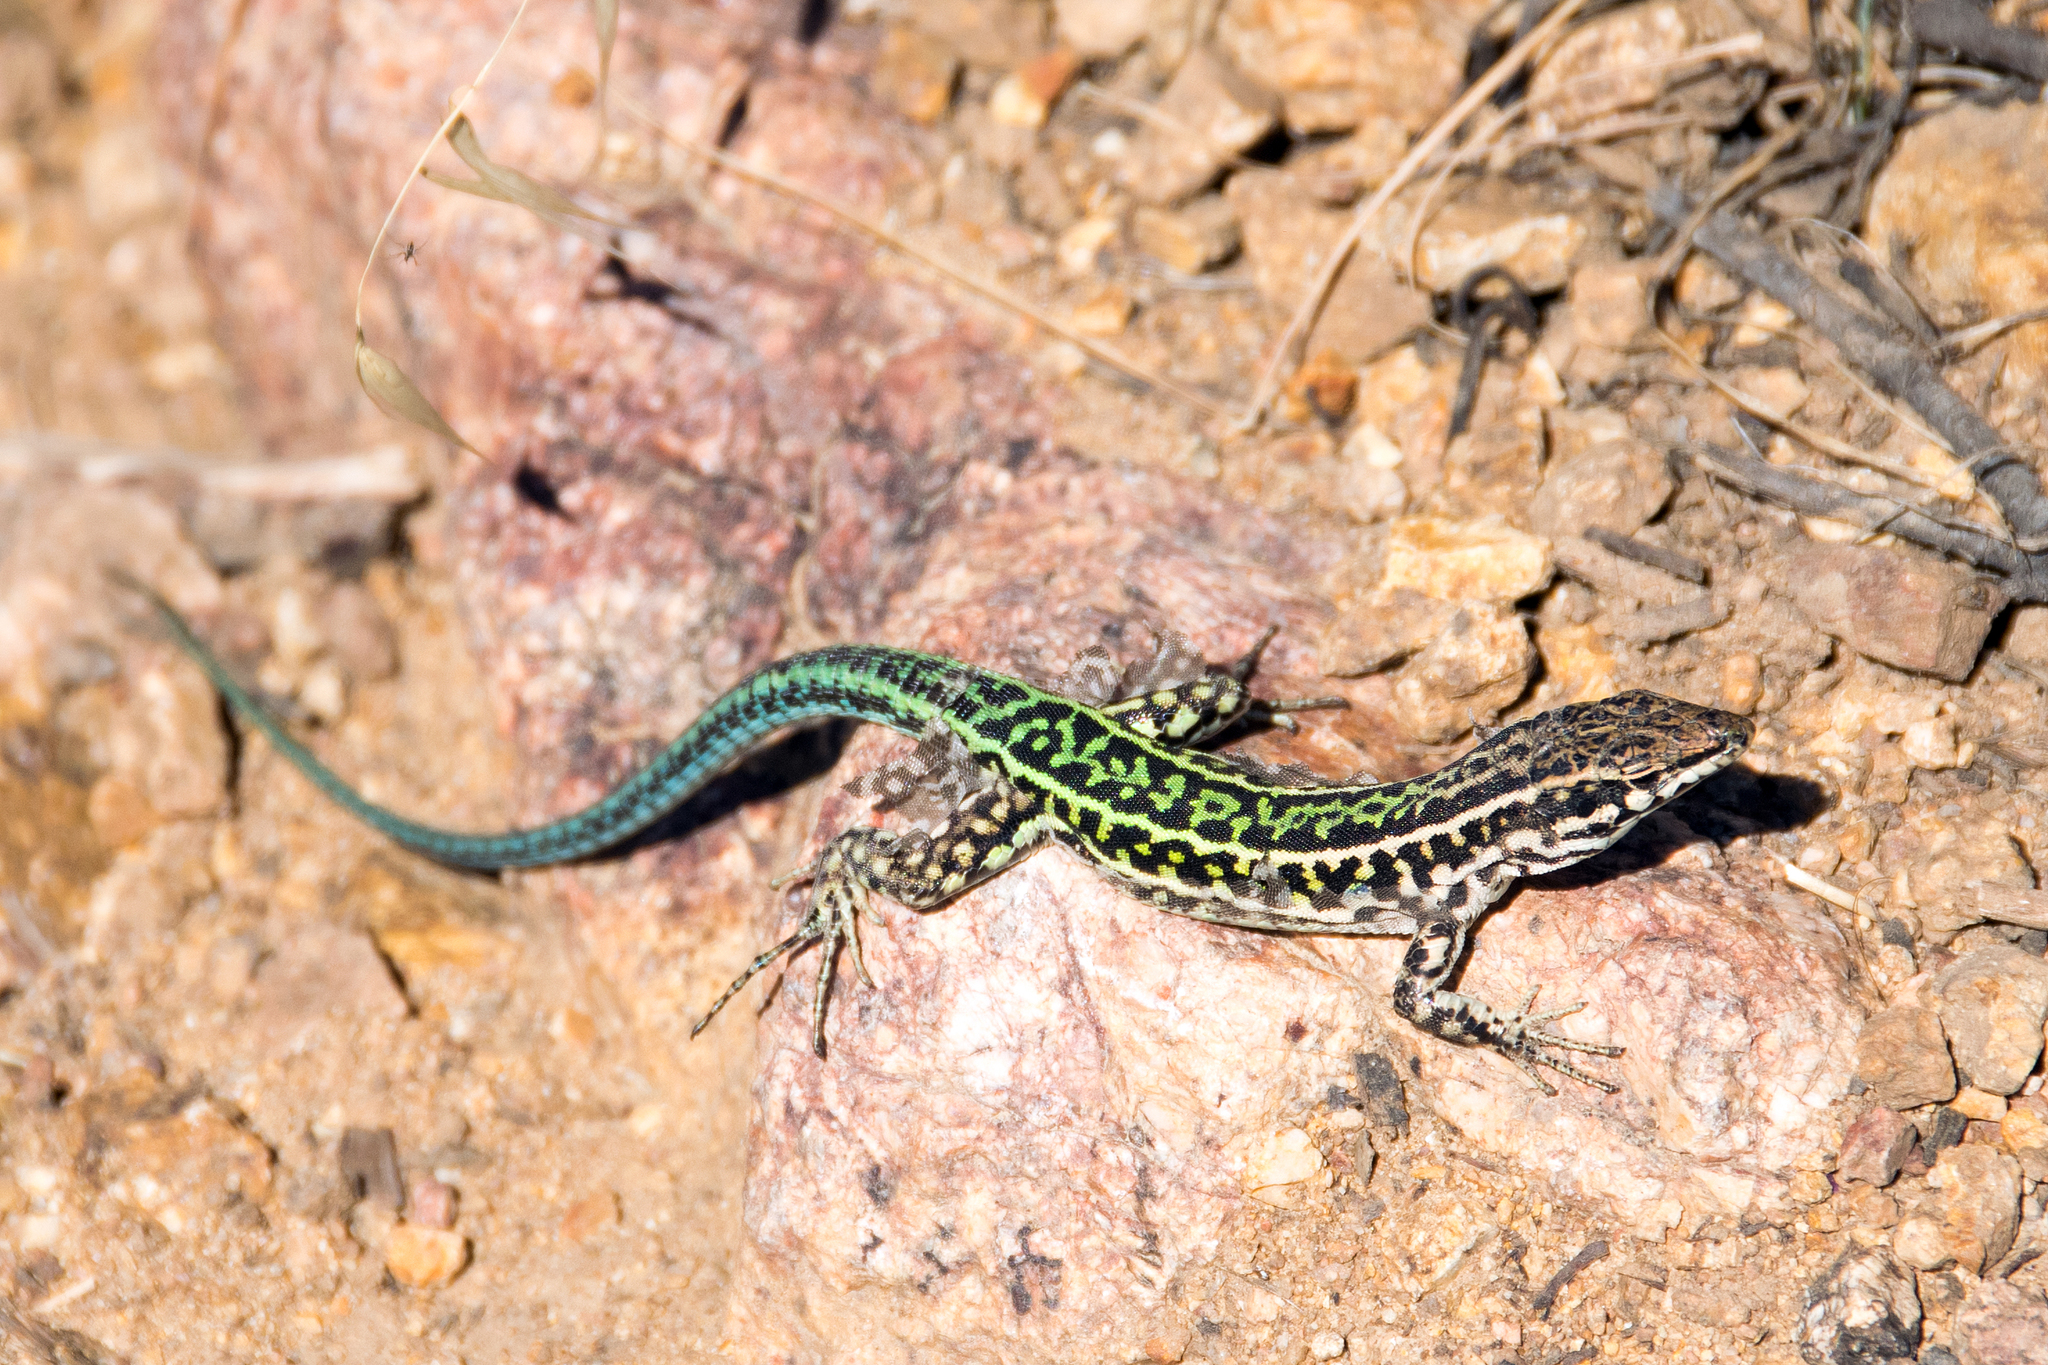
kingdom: Animalia
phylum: Chordata
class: Squamata
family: Lacertidae
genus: Podarcis
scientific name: Podarcis tiliguerta
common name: Tyrrhenian wall lizard
